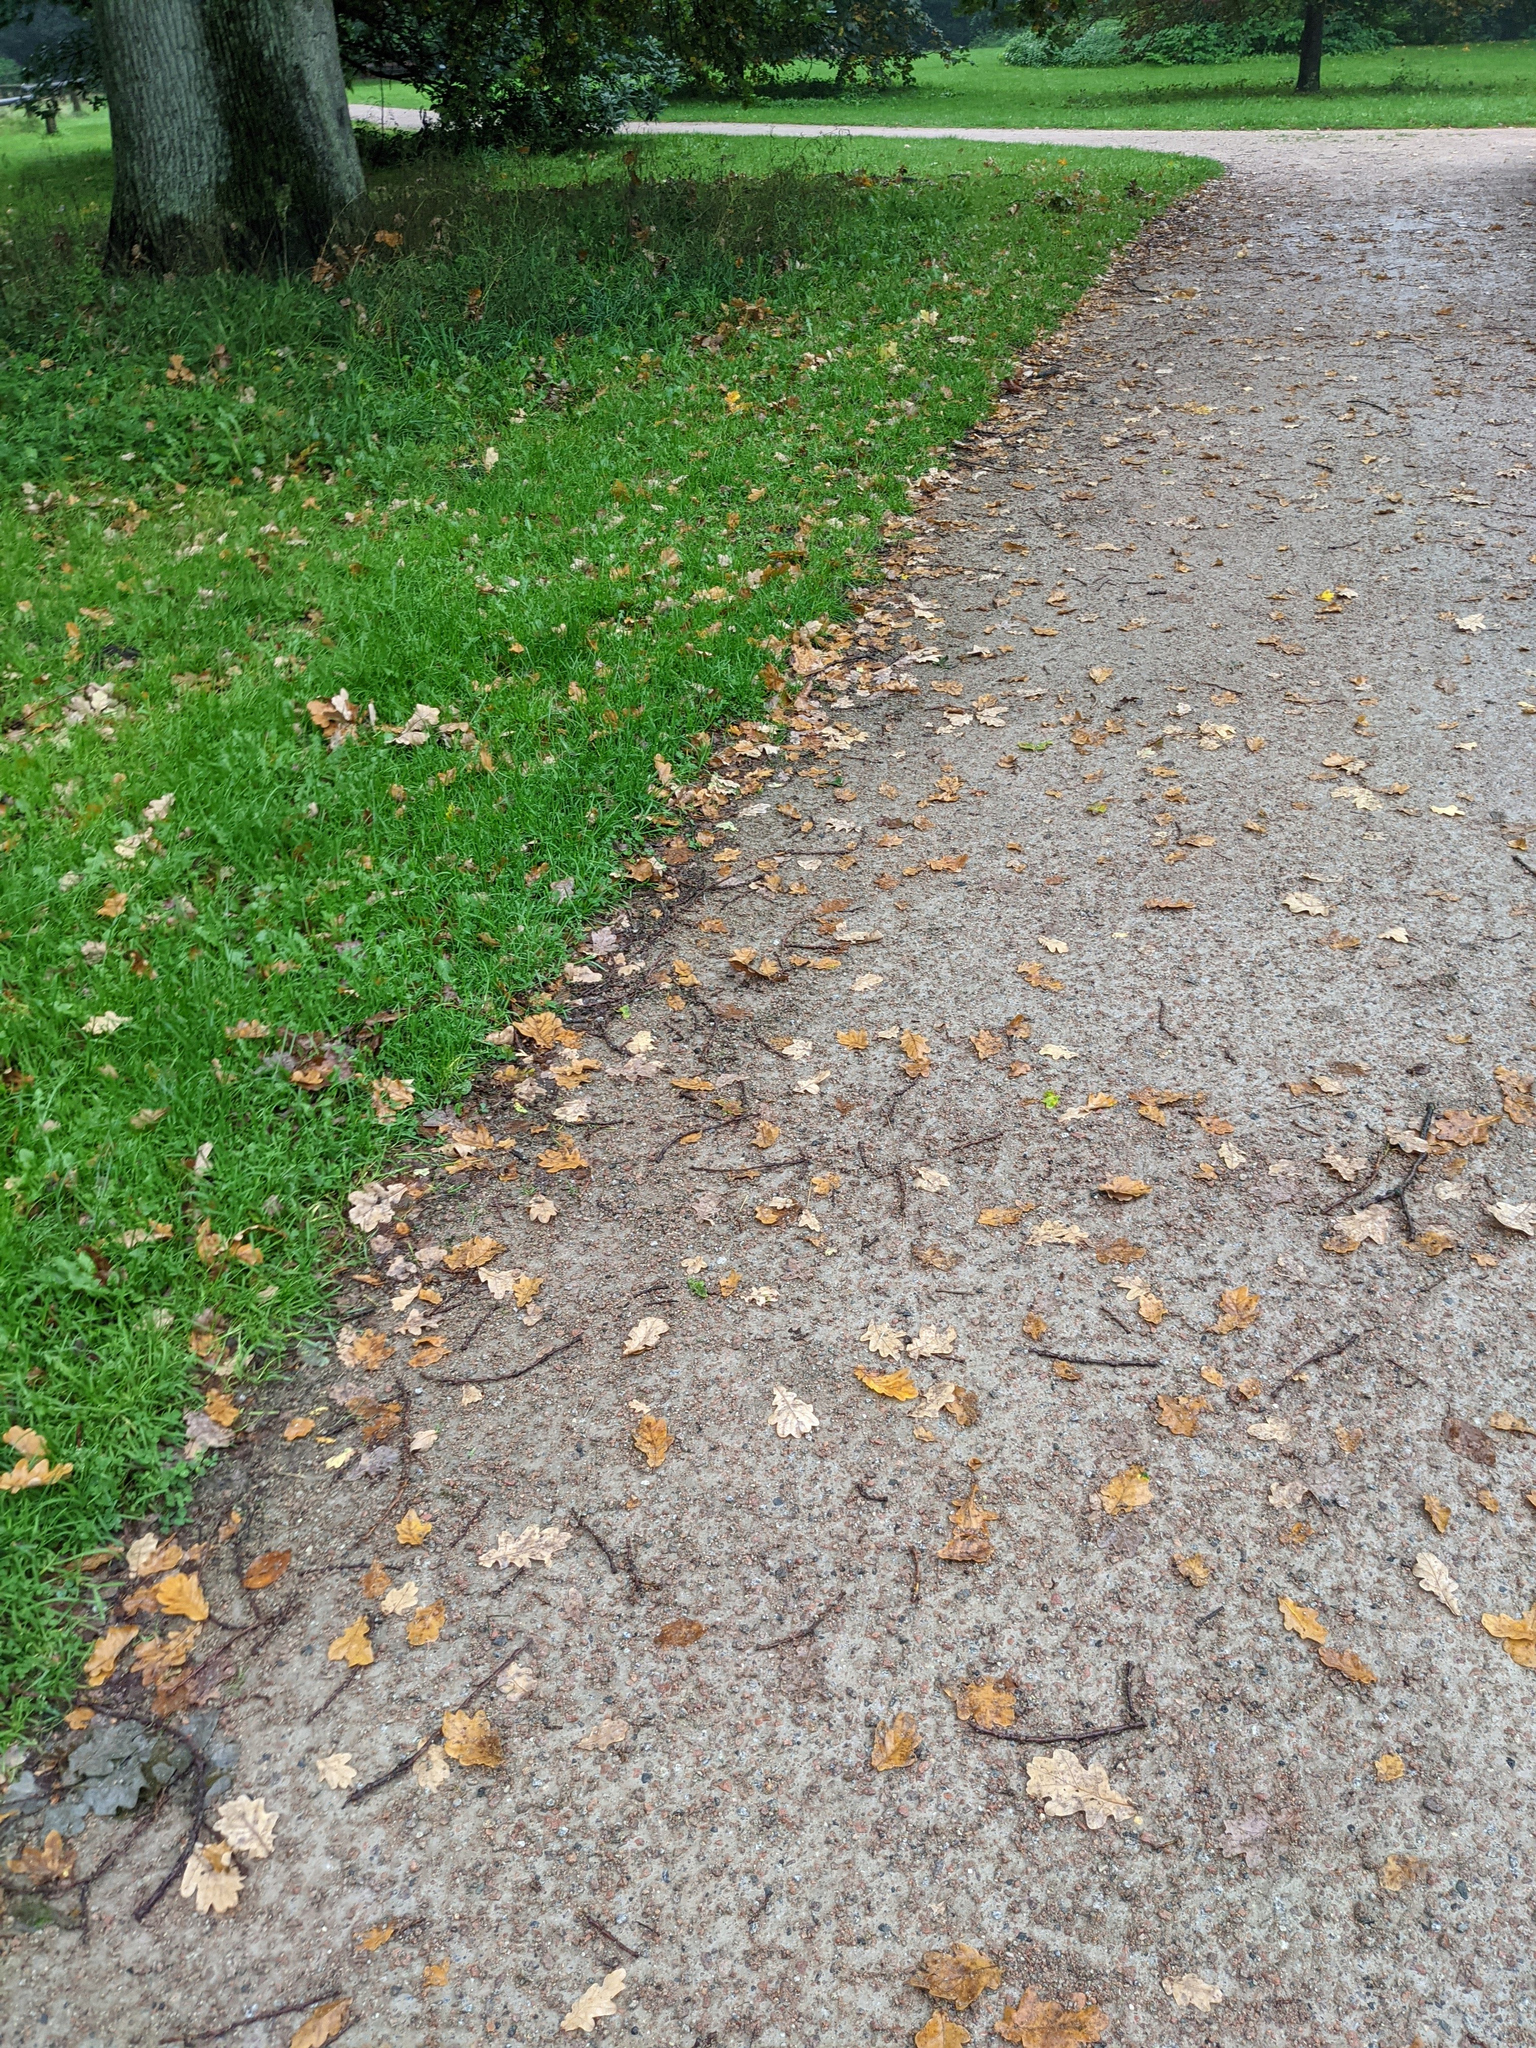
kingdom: Plantae
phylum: Tracheophyta
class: Magnoliopsida
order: Fagales
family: Fagaceae
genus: Quercus
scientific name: Quercus robur
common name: Pedunculate oak
